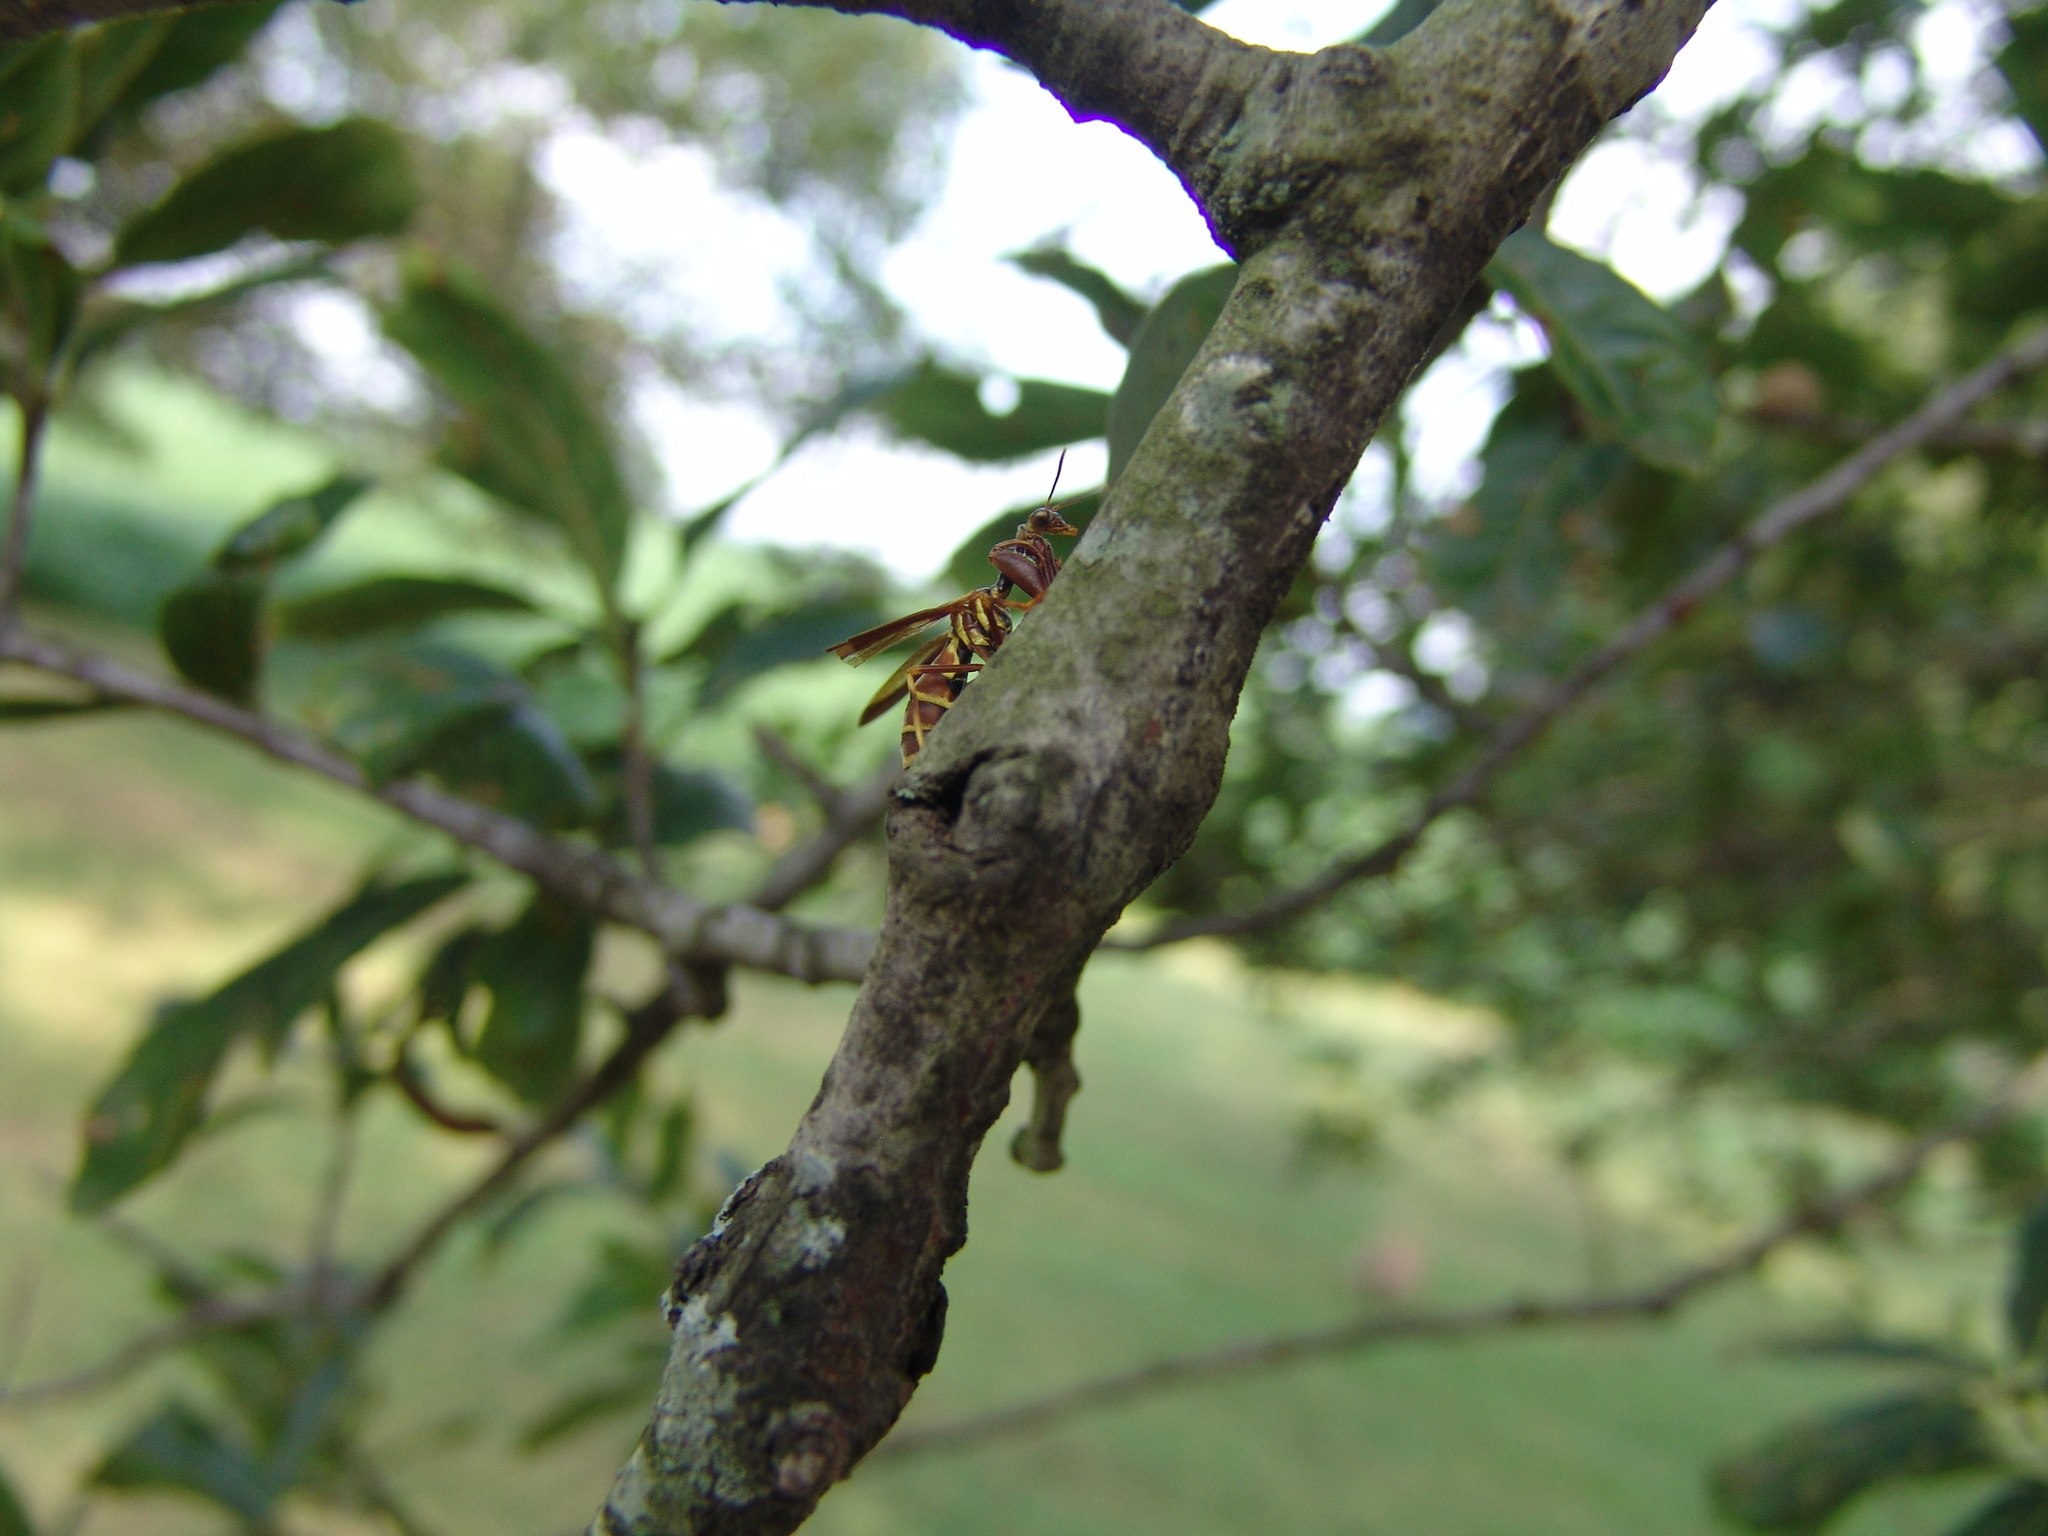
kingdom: Animalia
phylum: Arthropoda
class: Insecta
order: Neuroptera
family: Mantispidae
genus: Climaciella
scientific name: Climaciella brunnea
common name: Brown wasp mantidfly
